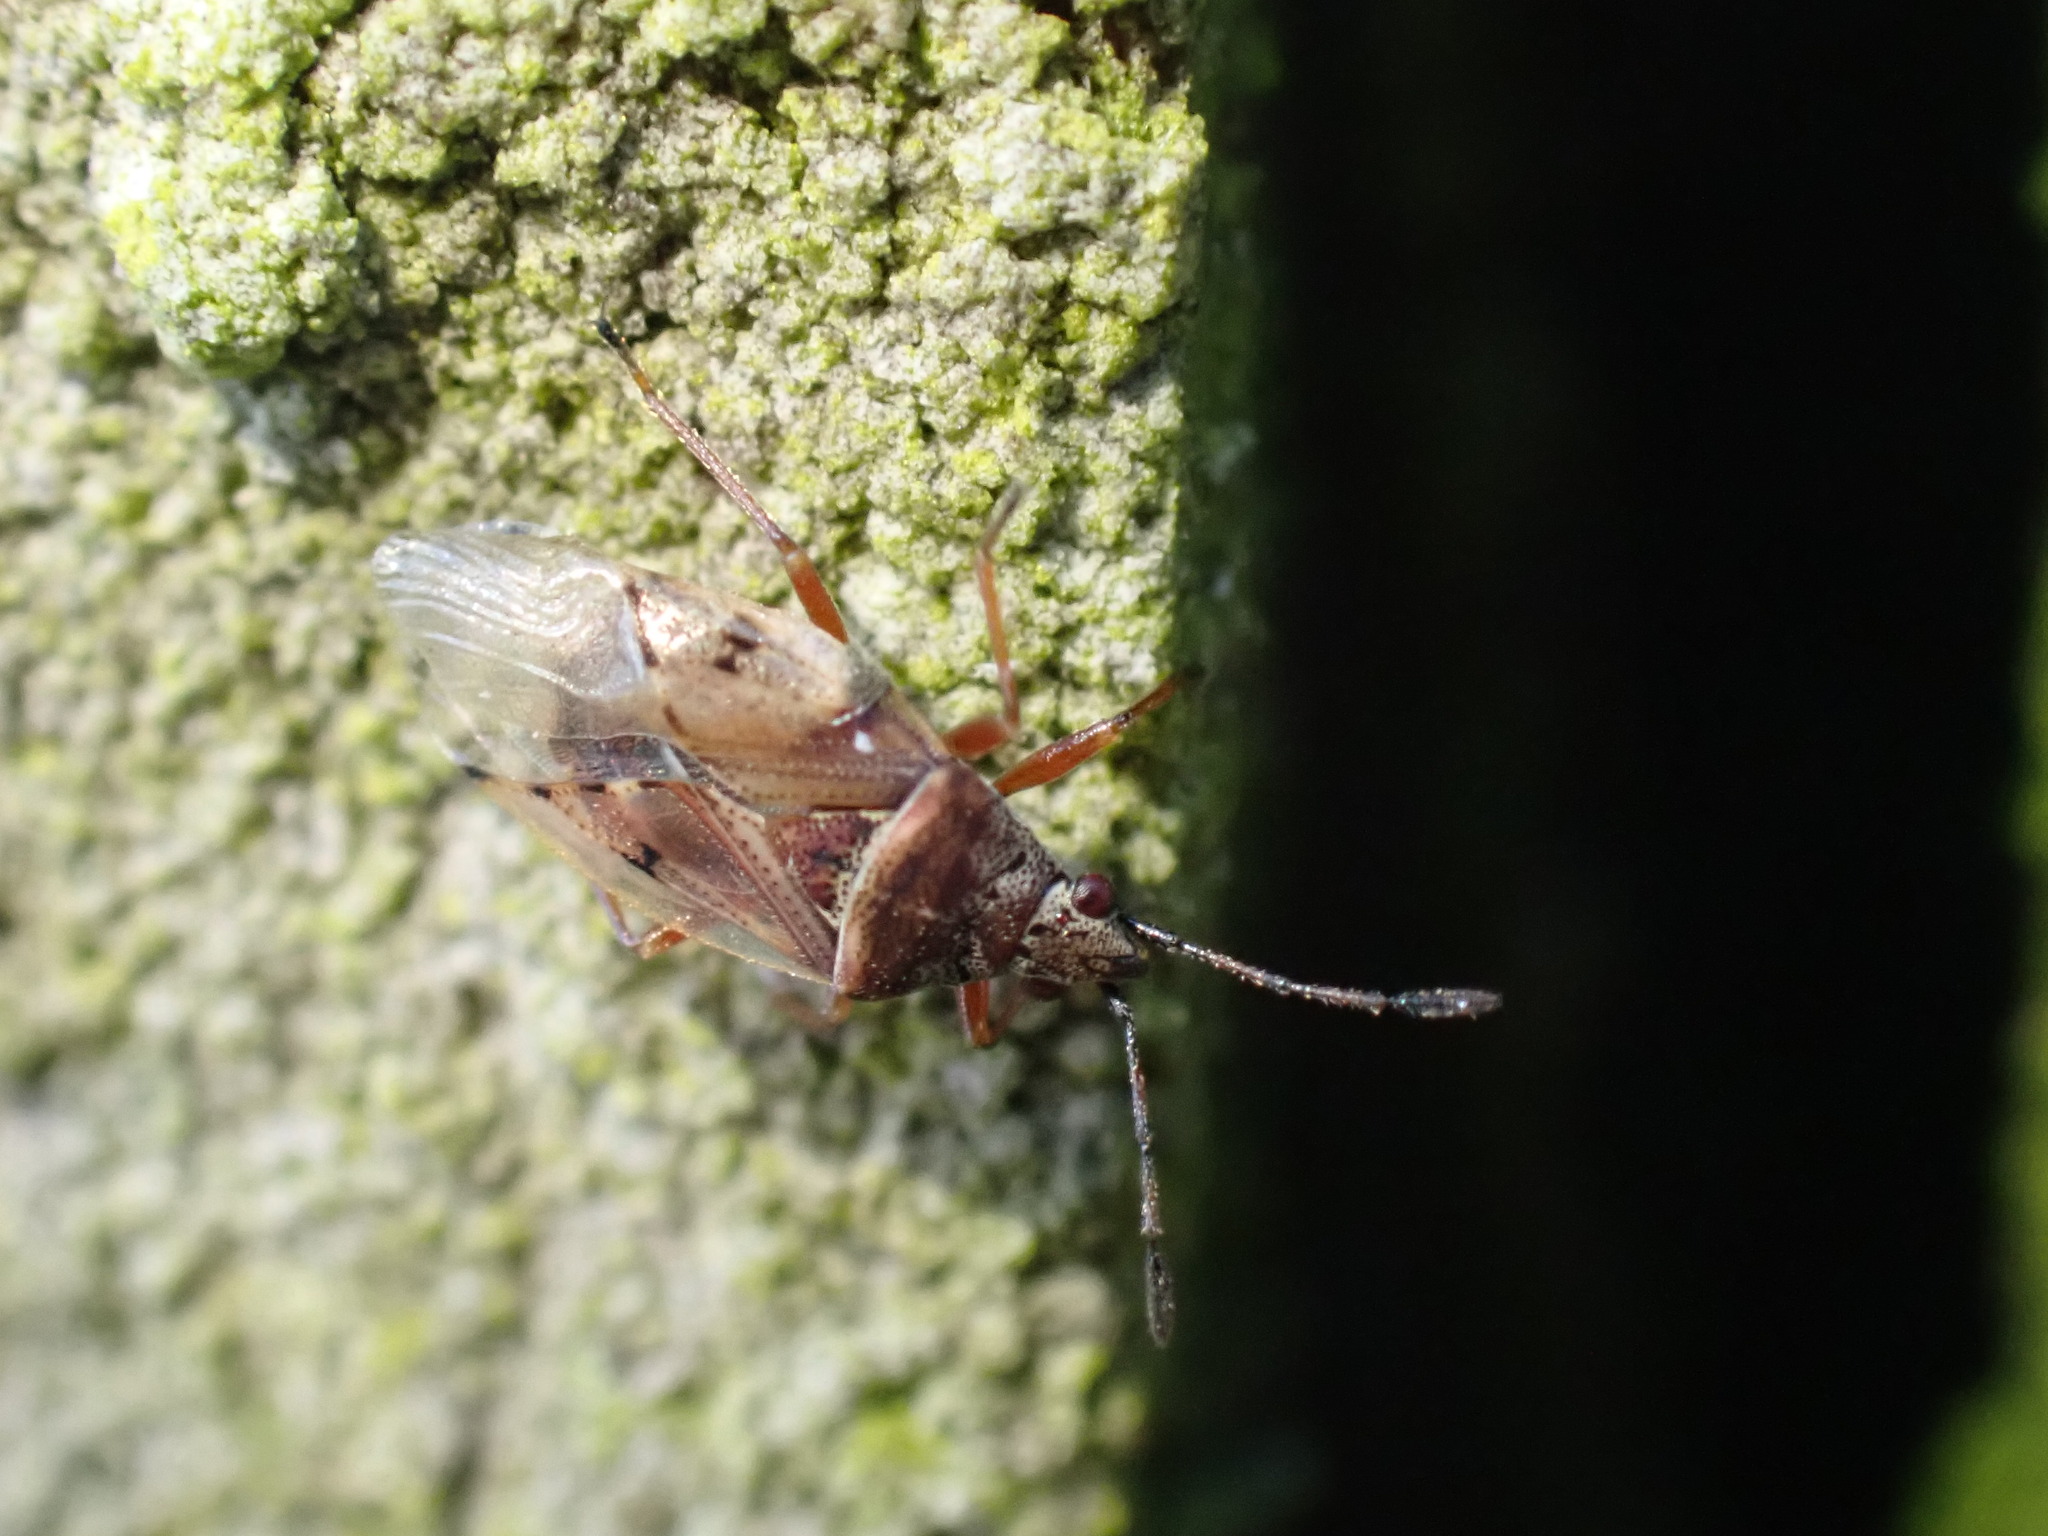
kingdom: Animalia
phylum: Arthropoda
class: Insecta
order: Hemiptera
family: Lygaeidae
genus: Kleidocerys
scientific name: Kleidocerys resedae
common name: Birch catkin bug
